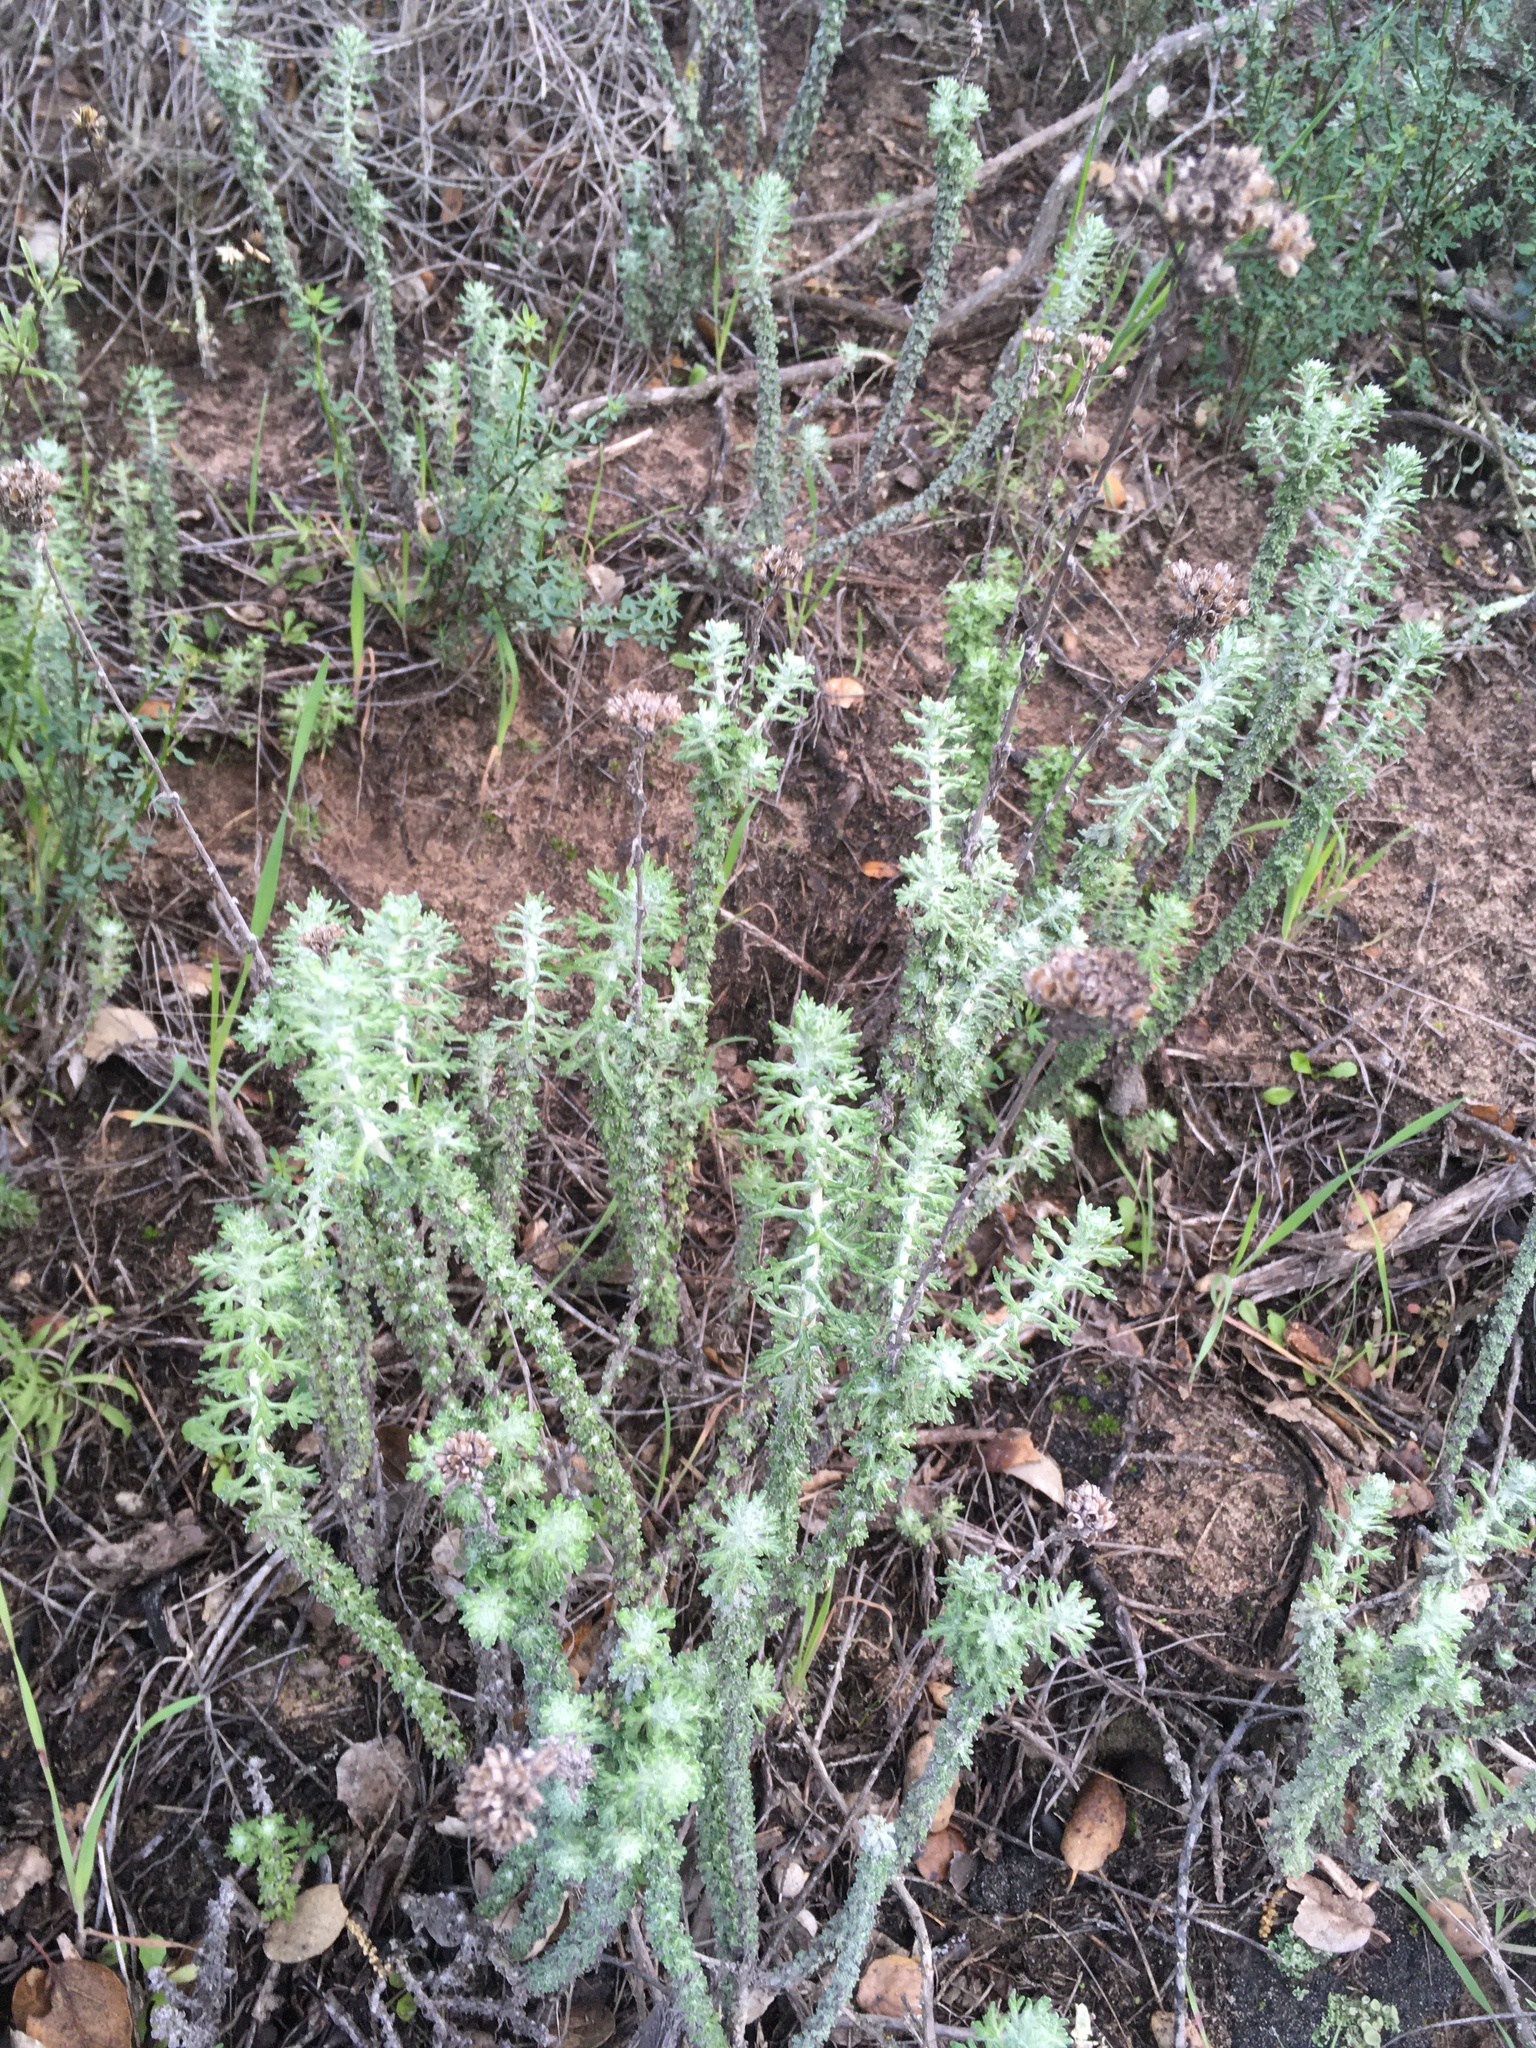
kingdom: Plantae
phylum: Tracheophyta
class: Magnoliopsida
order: Asterales
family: Asteraceae
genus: Eriophyllum
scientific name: Eriophyllum confertiflorum
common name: Golden-yarrow
